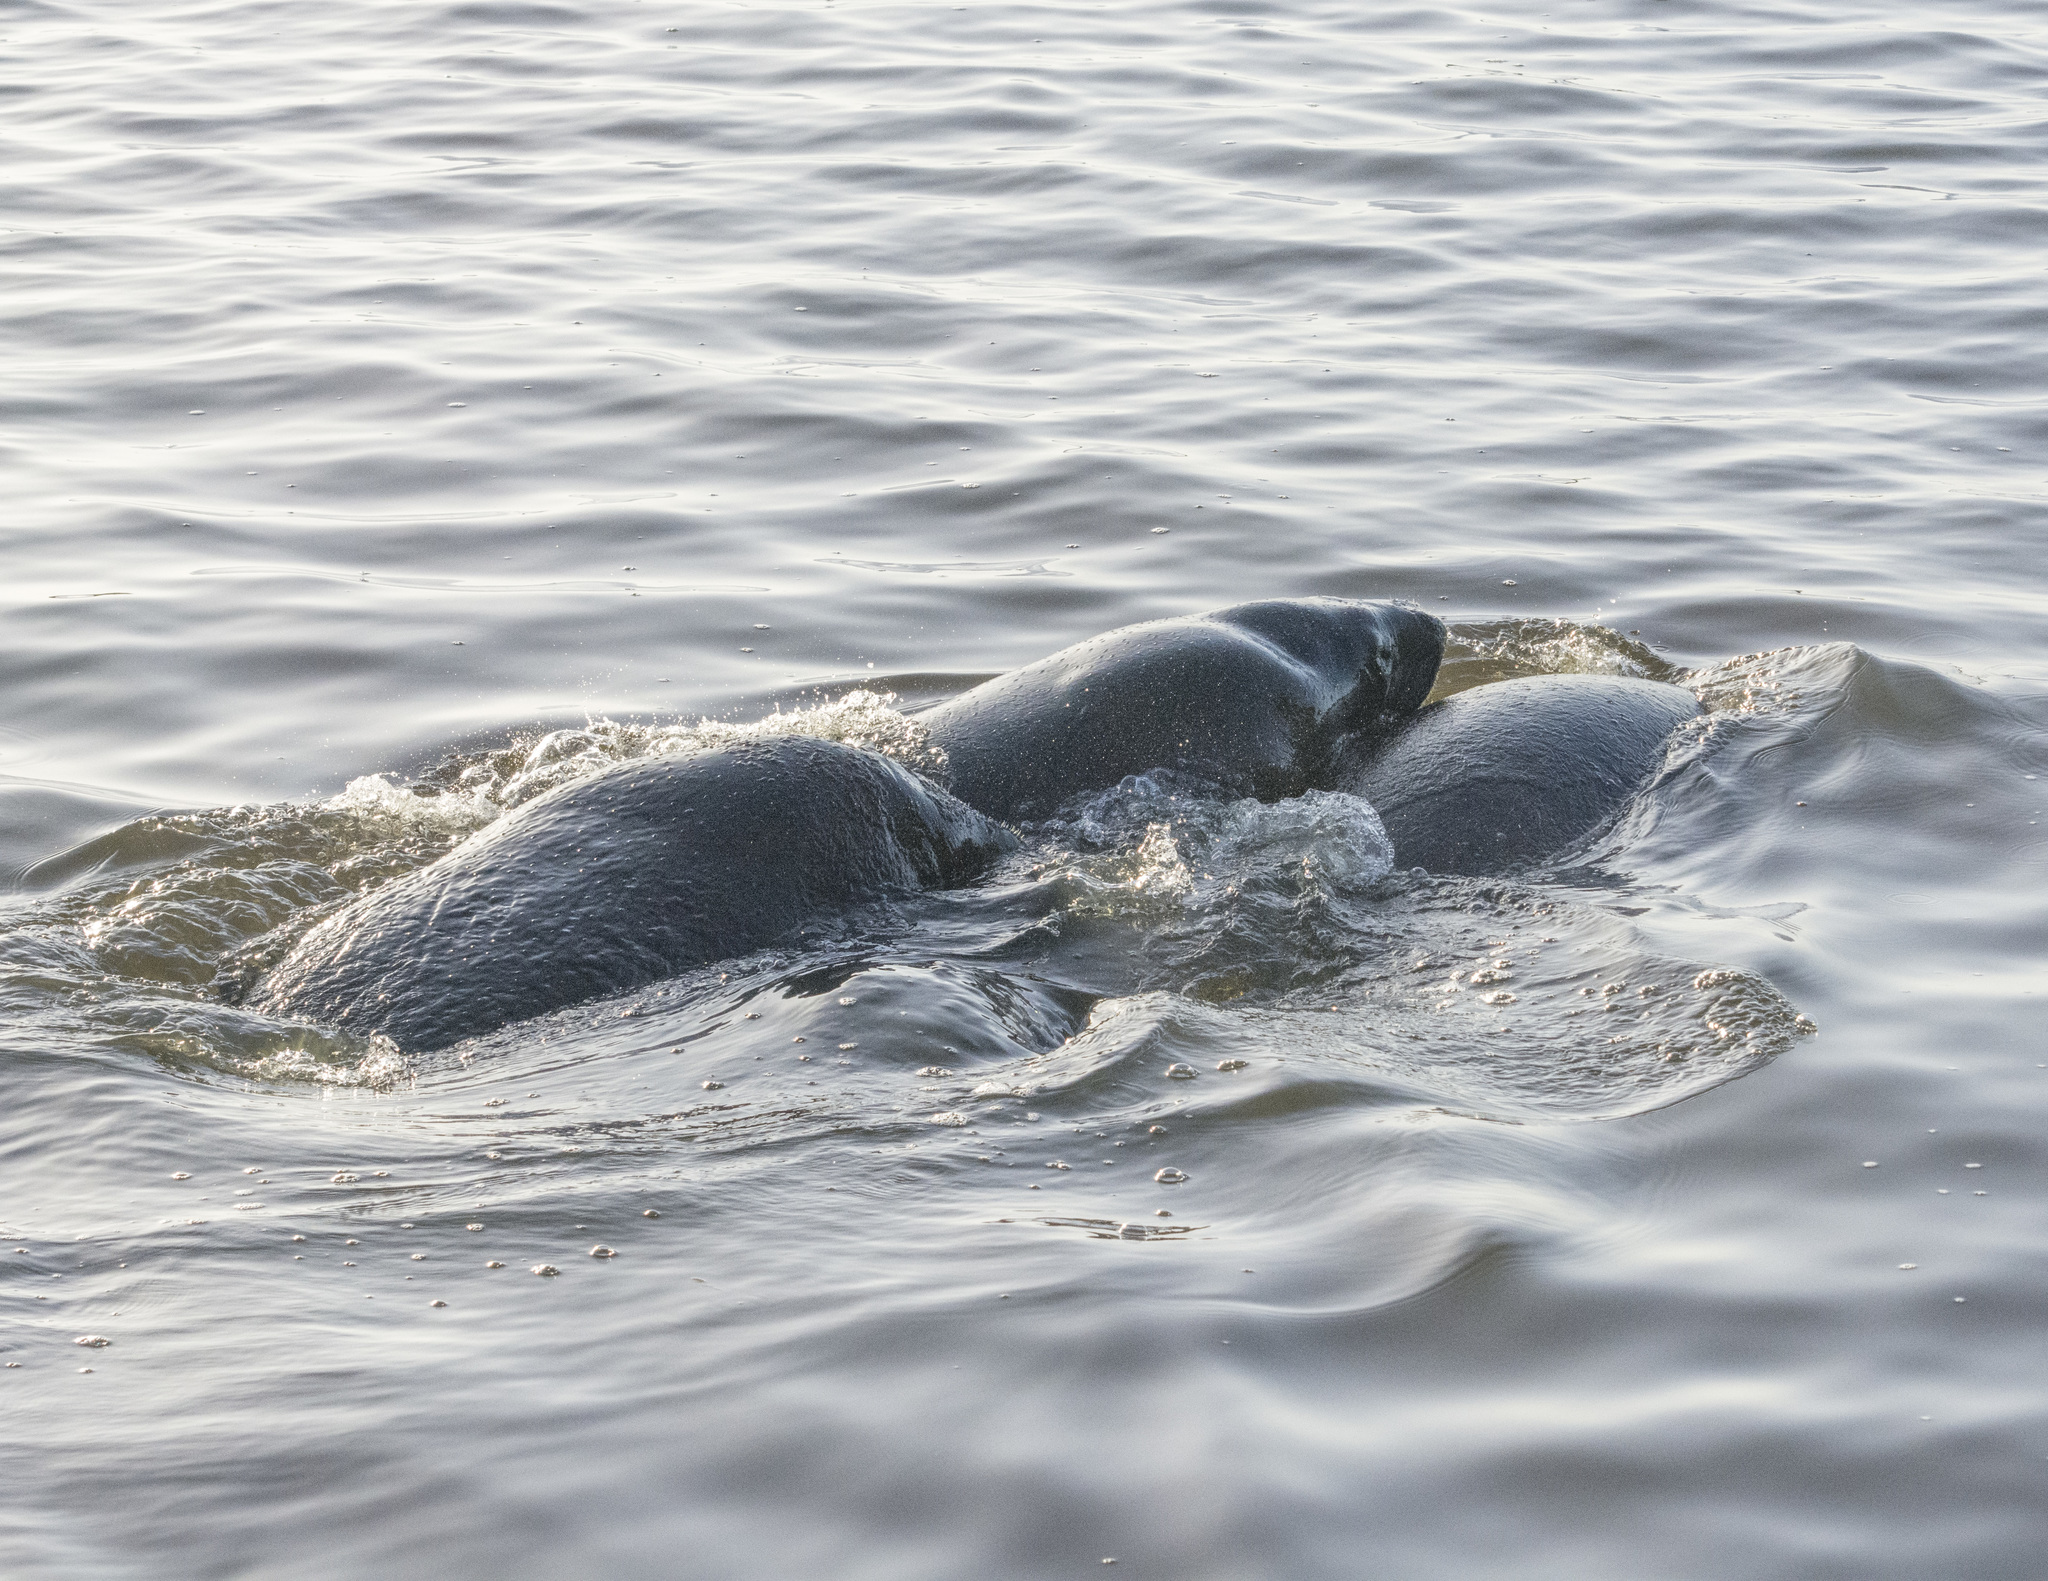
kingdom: Animalia
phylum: Chordata
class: Mammalia
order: Sirenia
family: Trichechidae
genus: Trichechus
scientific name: Trichechus manatus
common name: West indian manatee
